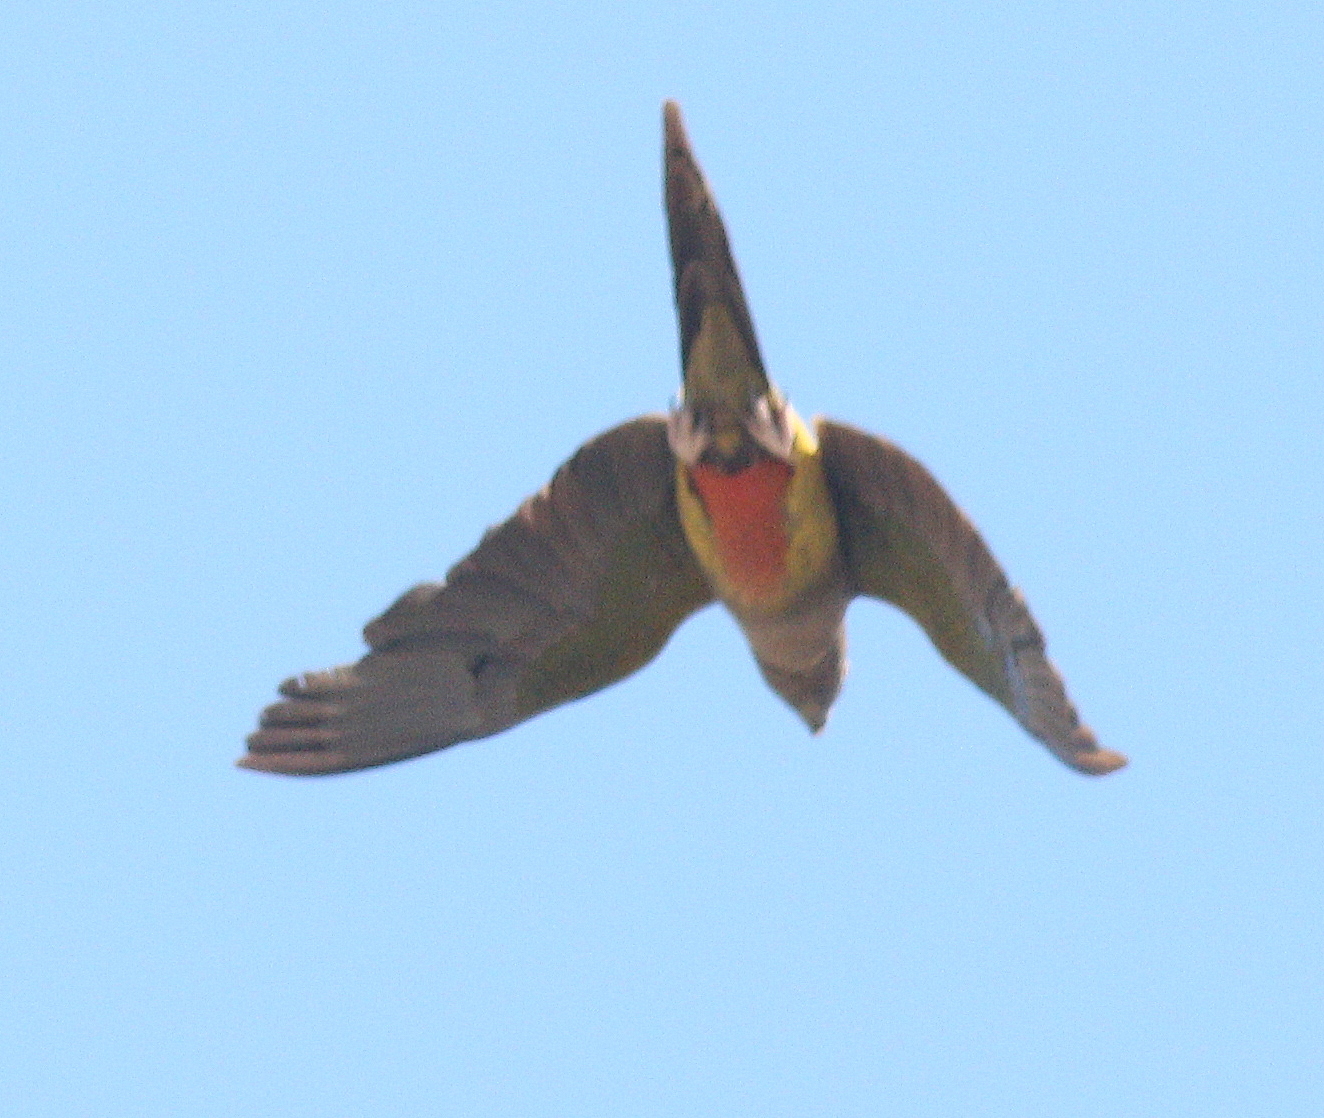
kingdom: Animalia
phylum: Chordata
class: Aves
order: Psittaciformes
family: Psittacidae
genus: Cyanoliseus
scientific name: Cyanoliseus patagonus
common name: Burrowing parrot
